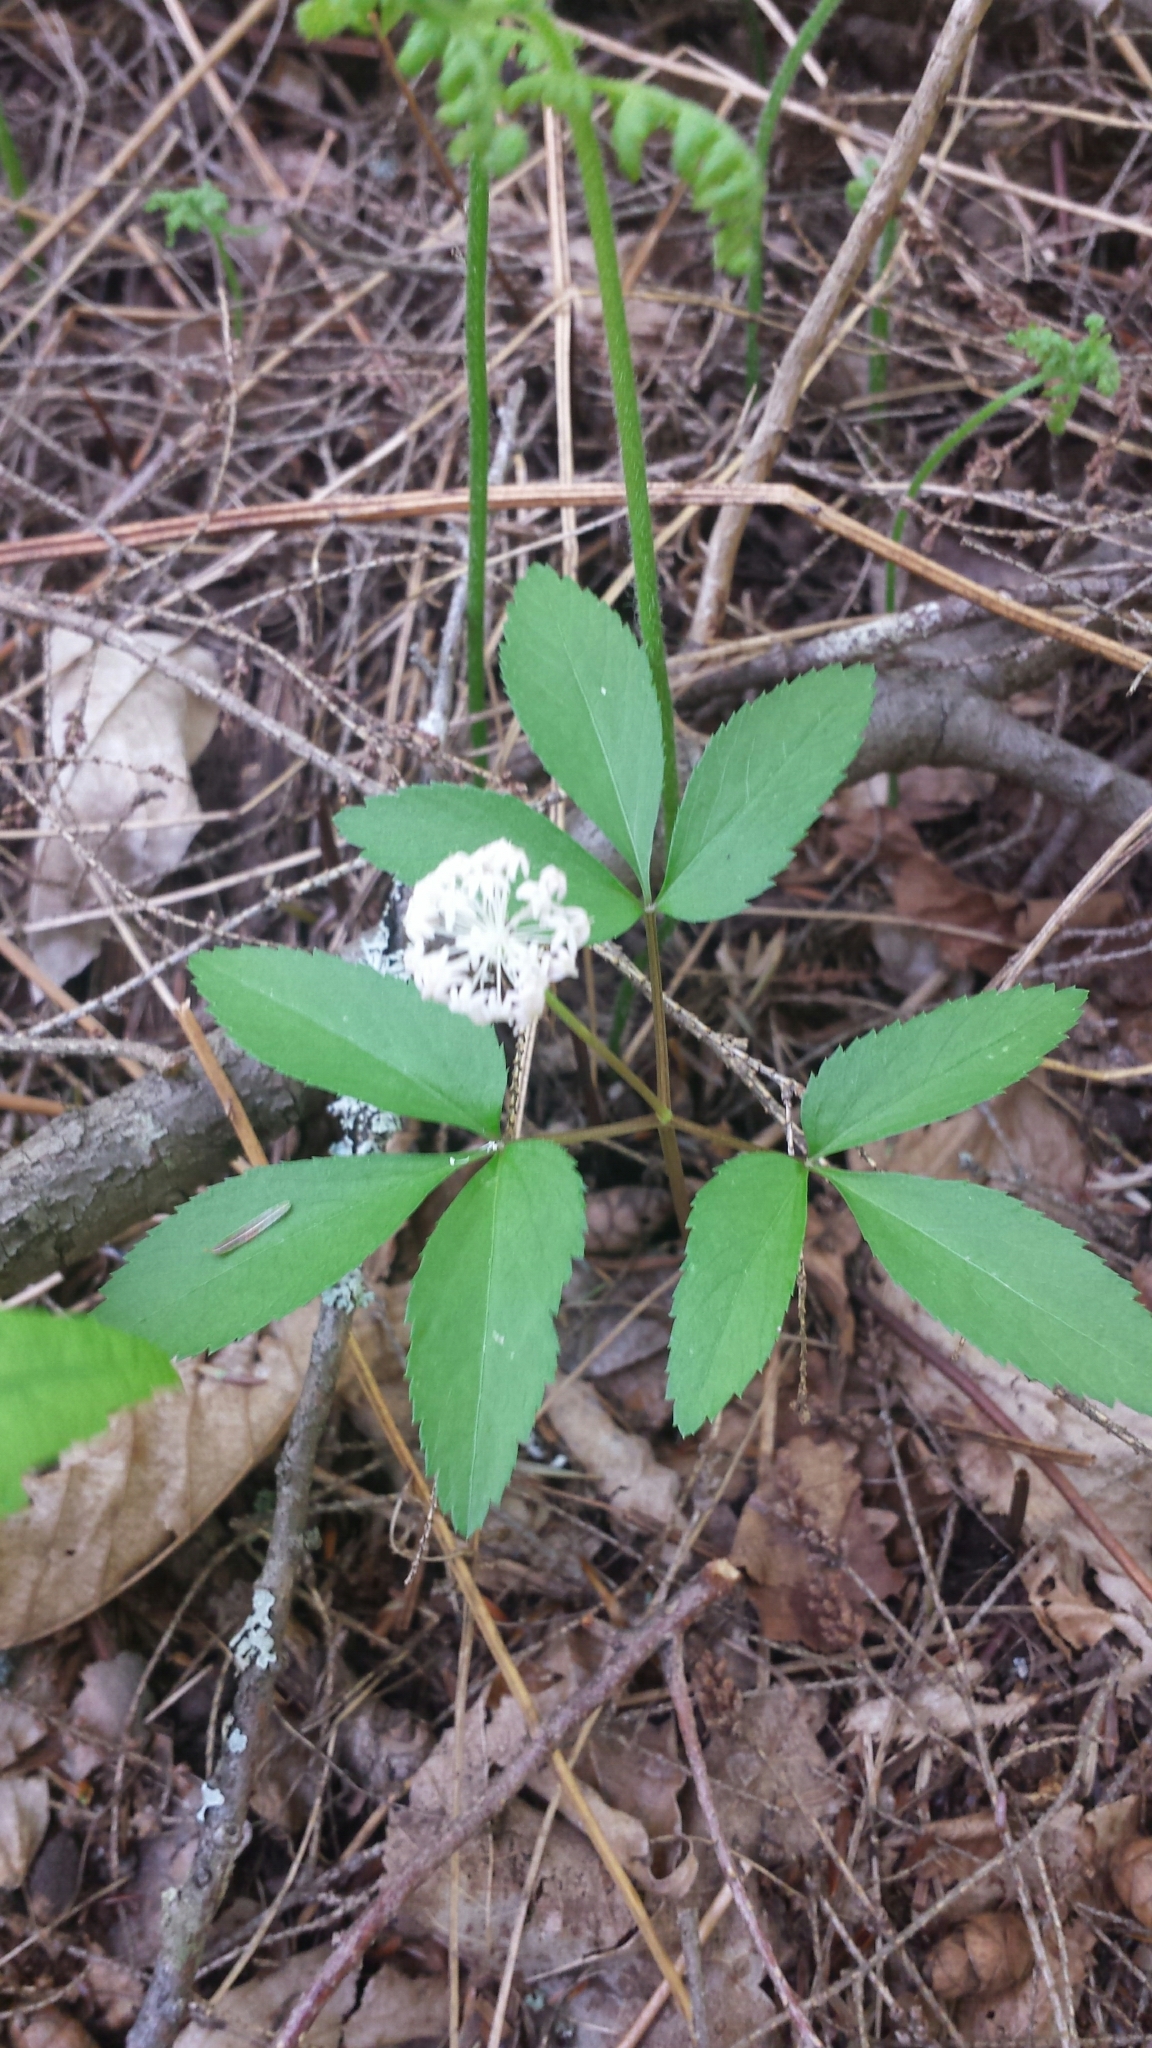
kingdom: Plantae
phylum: Tracheophyta
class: Magnoliopsida
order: Apiales
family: Araliaceae
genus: Panax
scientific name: Panax trifolius
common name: Dwarf ginseng
